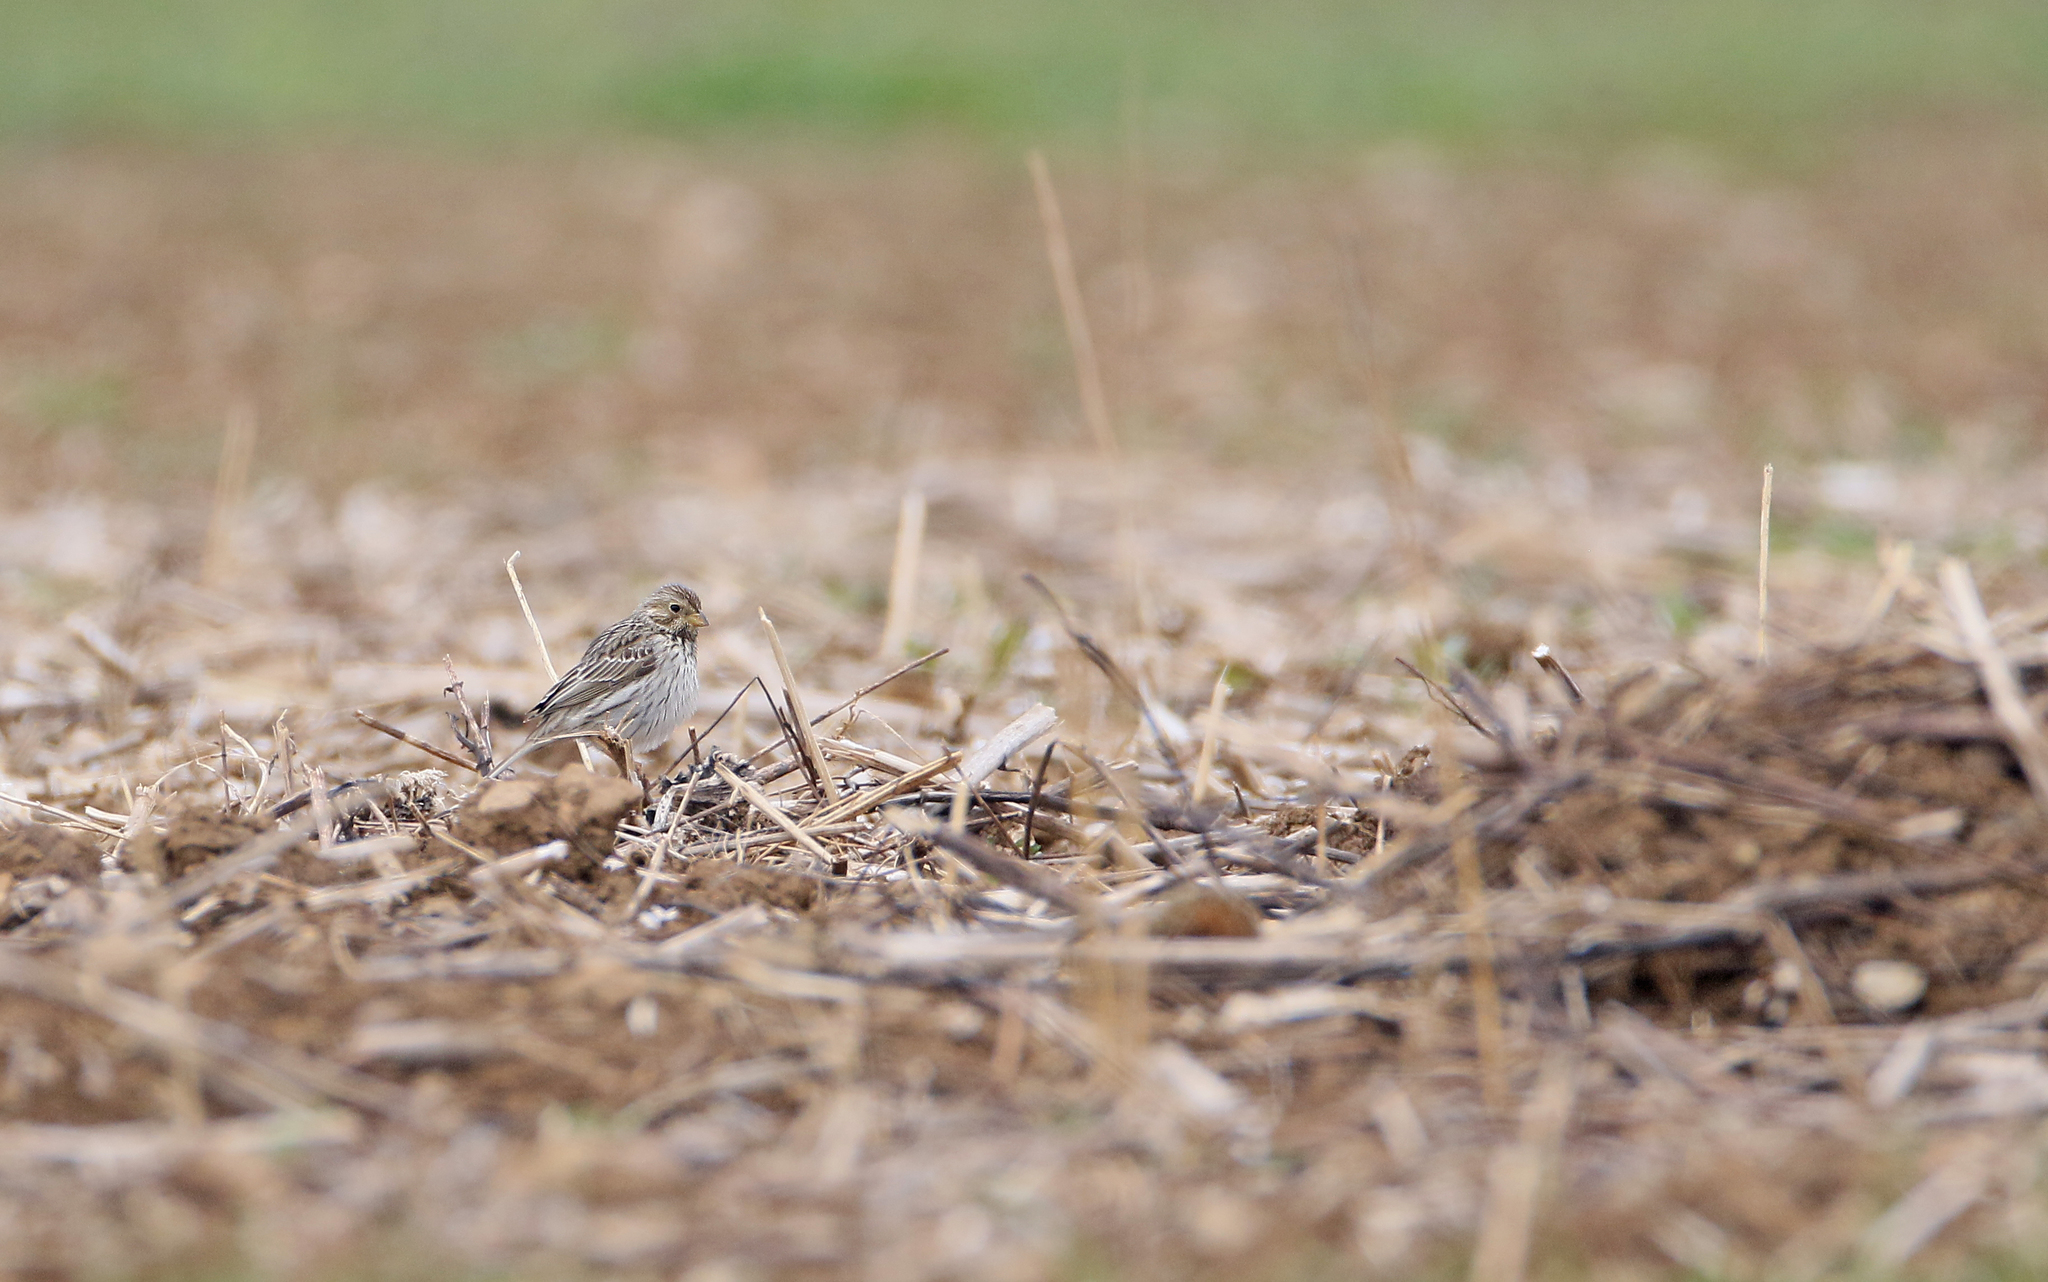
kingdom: Animalia
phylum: Chordata
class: Aves
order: Passeriformes
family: Emberizidae
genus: Emberiza
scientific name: Emberiza calandra
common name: Corn bunting
